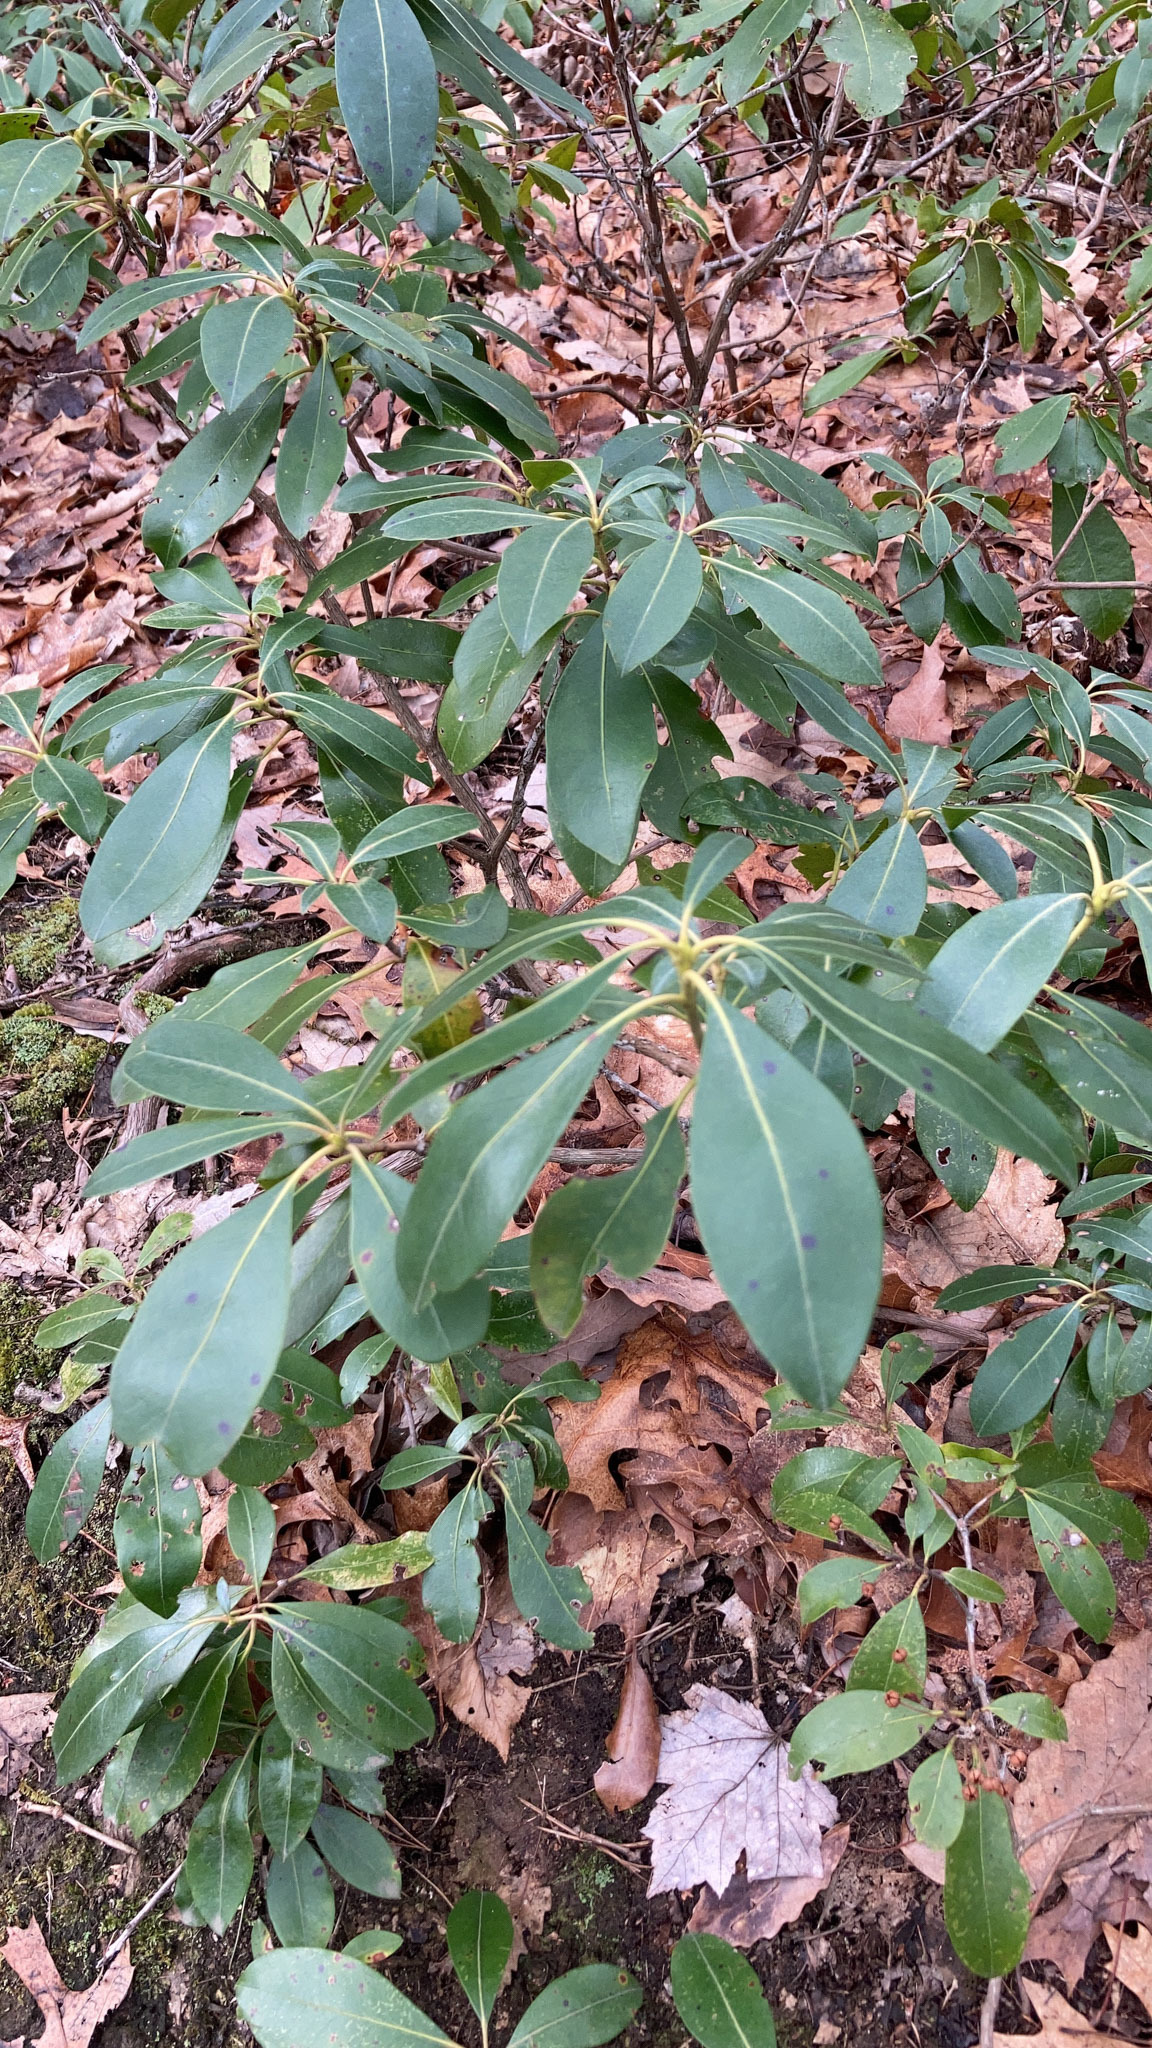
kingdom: Plantae
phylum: Tracheophyta
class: Magnoliopsida
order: Ericales
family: Ericaceae
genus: Kalmia
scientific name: Kalmia latifolia
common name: Mountain-laurel
